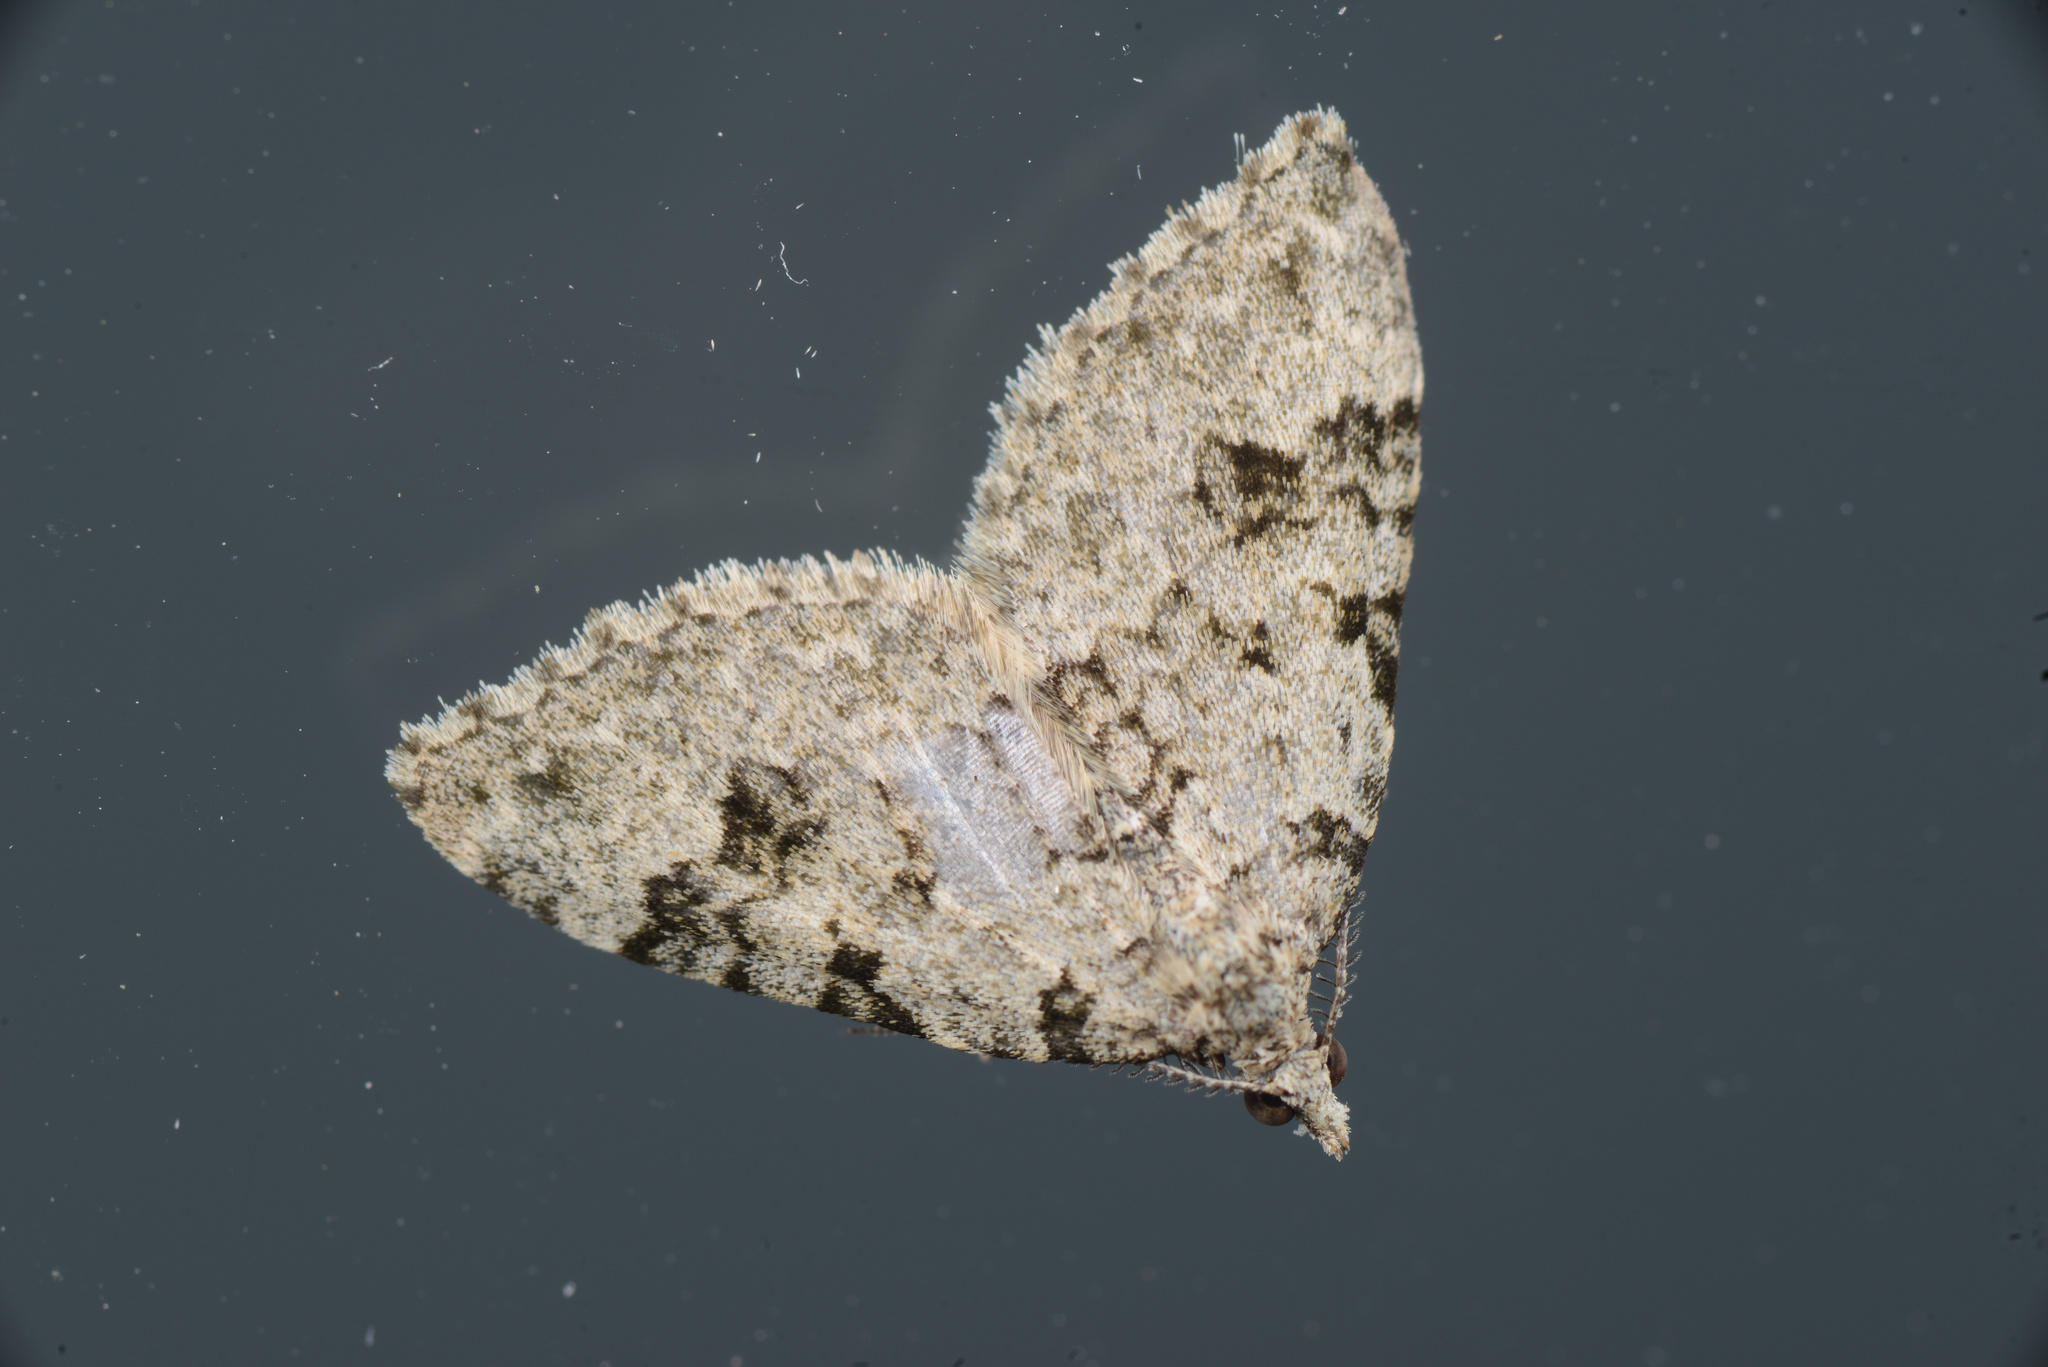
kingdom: Animalia
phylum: Arthropoda
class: Insecta
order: Lepidoptera
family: Geometridae
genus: Helastia
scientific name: Helastia cinerearia
